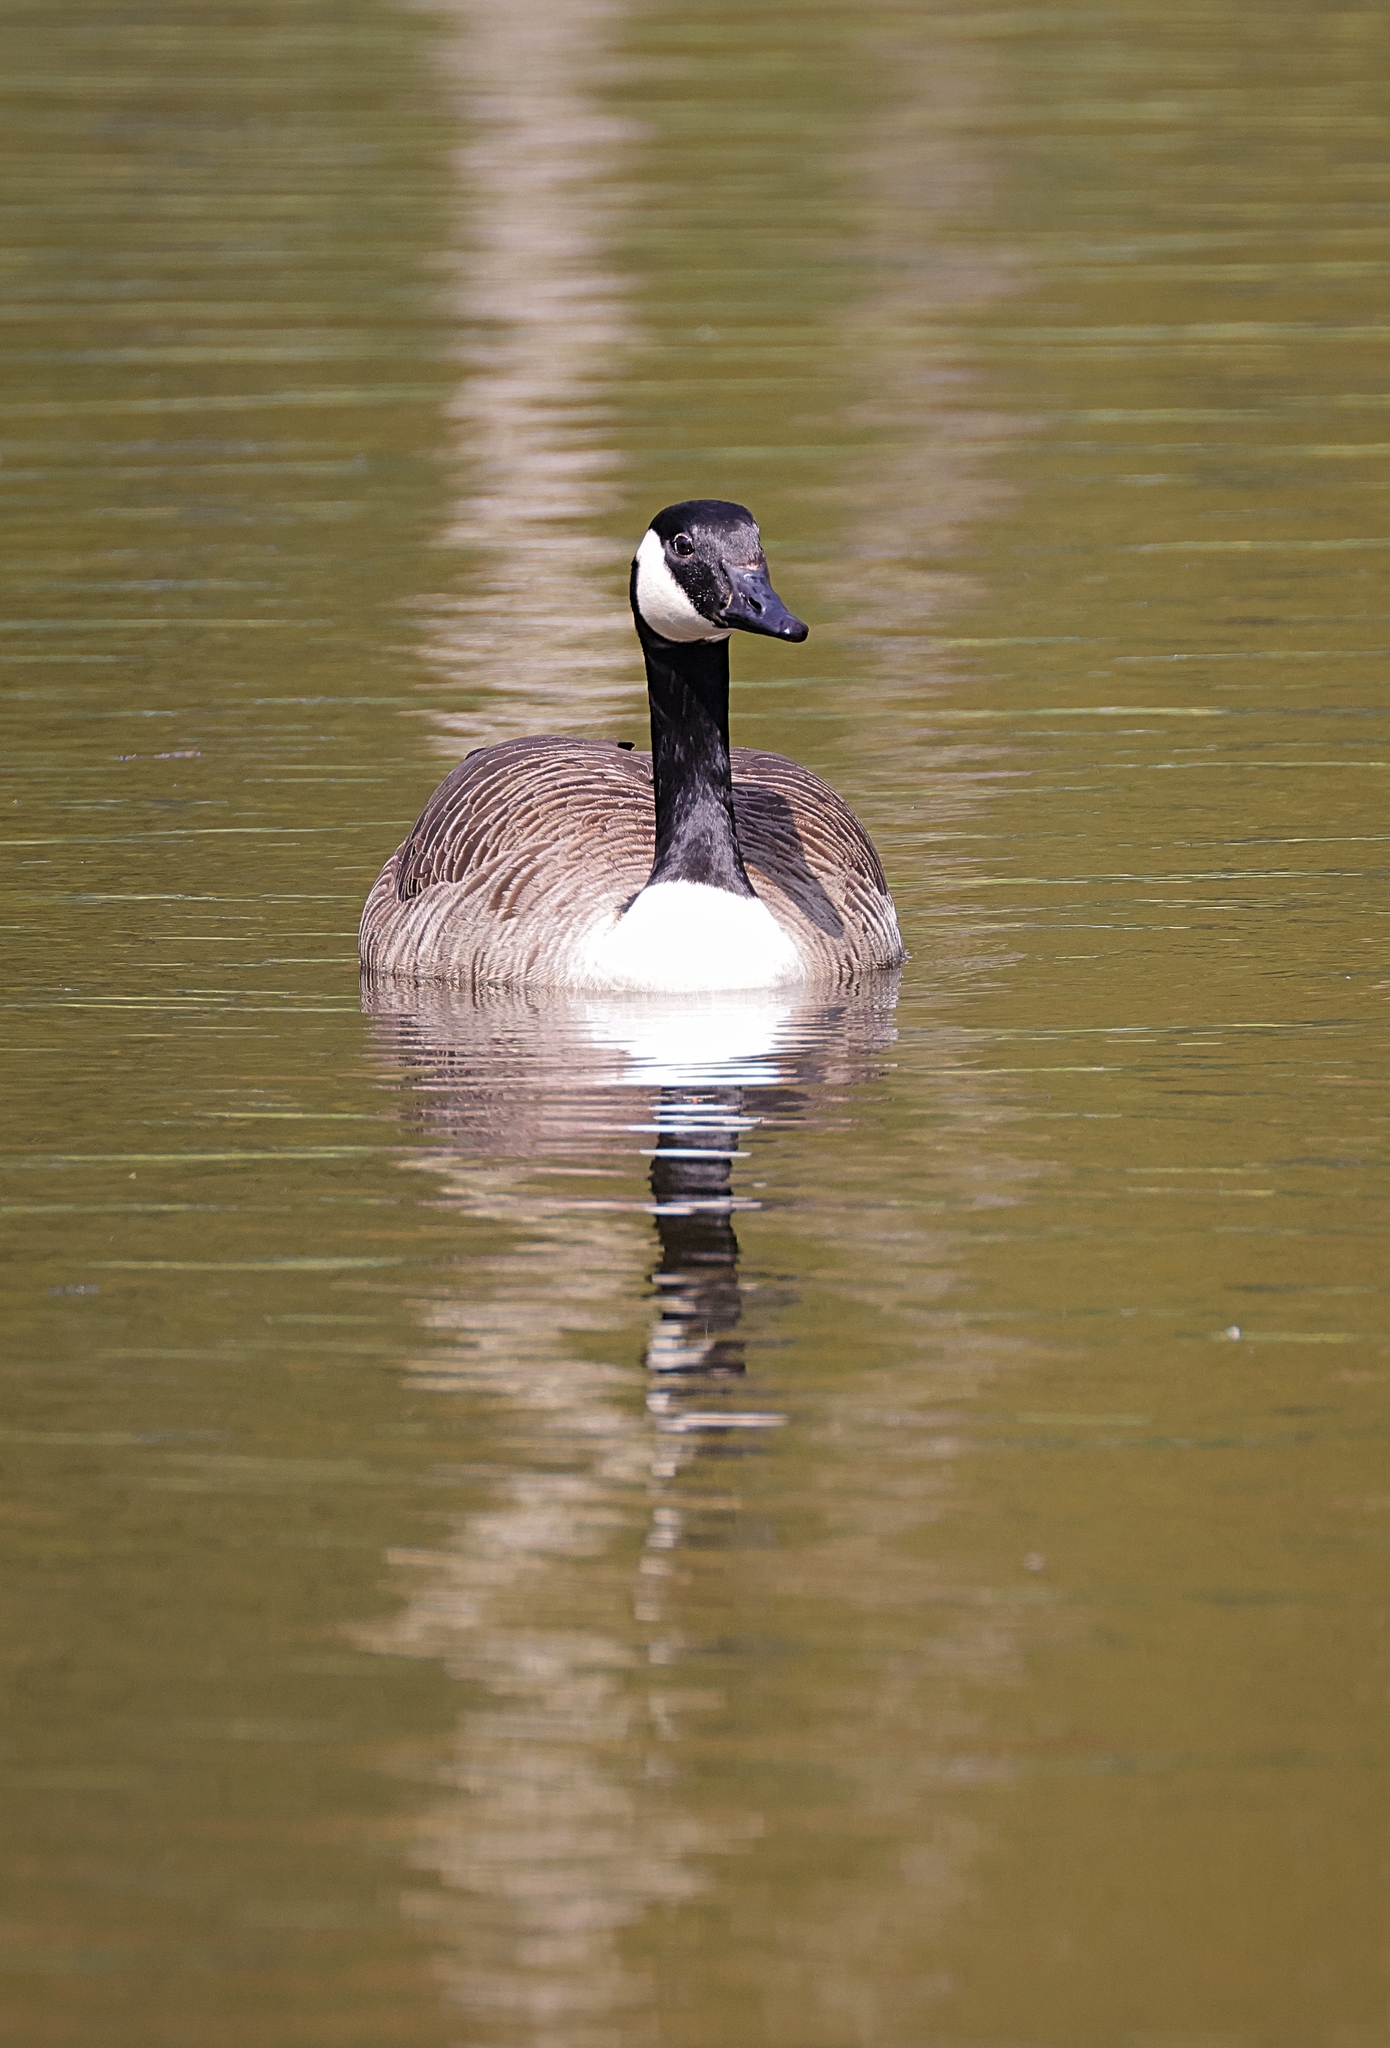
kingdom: Animalia
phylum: Chordata
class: Aves
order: Anseriformes
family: Anatidae
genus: Branta
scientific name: Branta canadensis
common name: Canada goose
